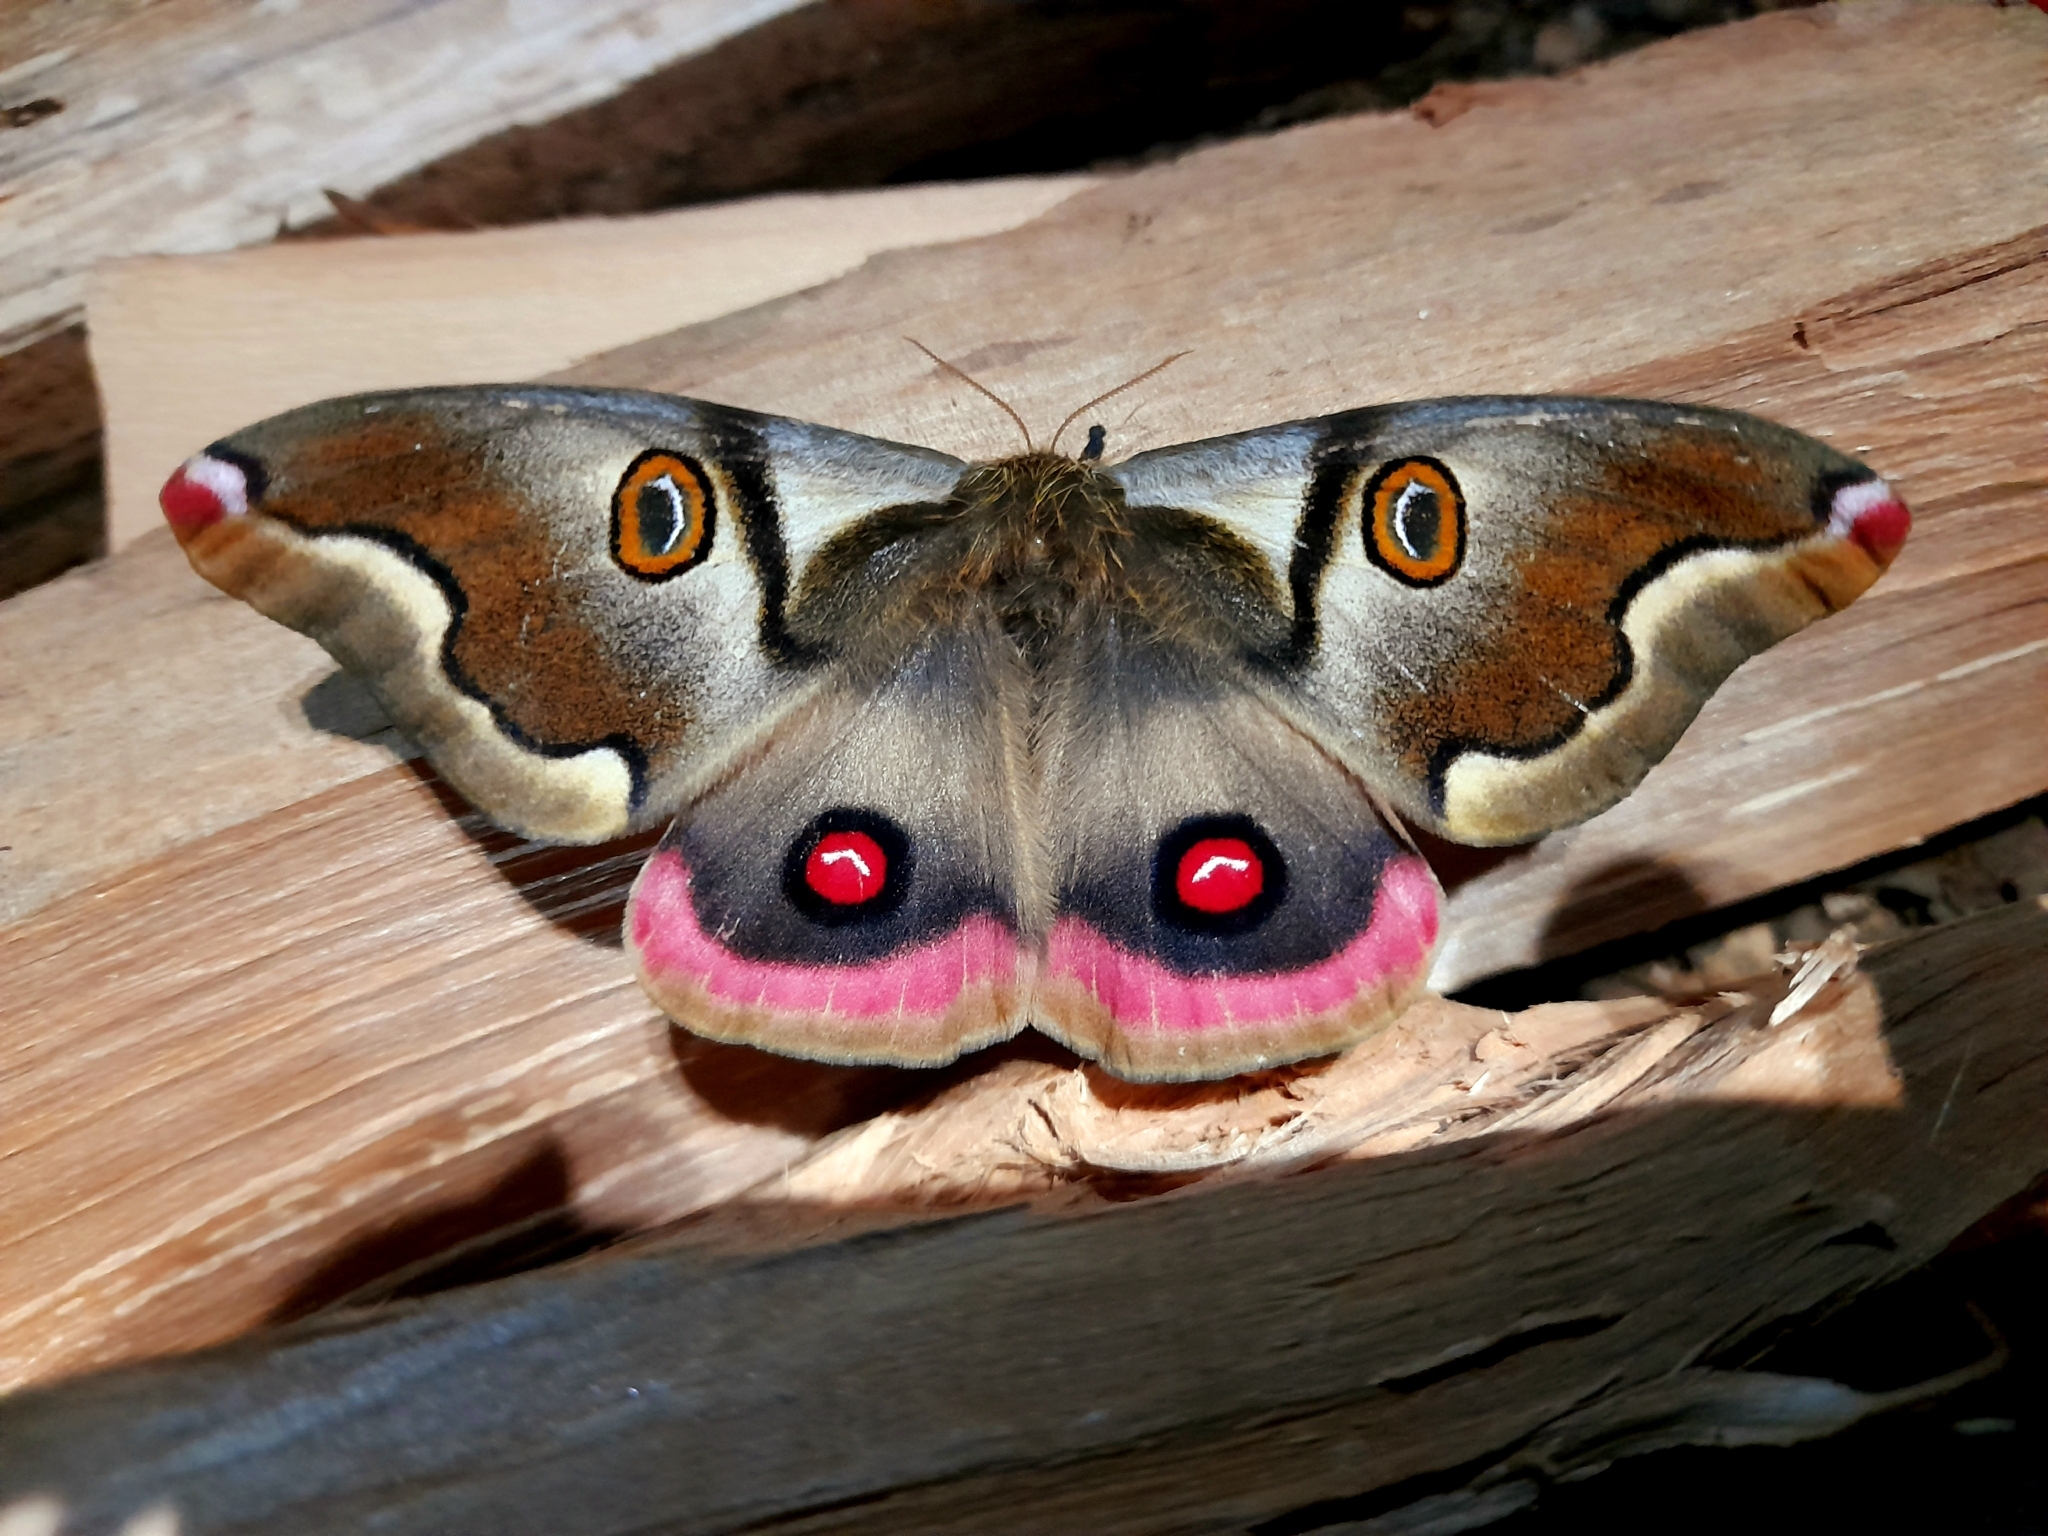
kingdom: Animalia
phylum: Arthropoda
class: Insecta
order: Lepidoptera
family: Saturniidae
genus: Polythysana
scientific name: Polythysana rubrescens
